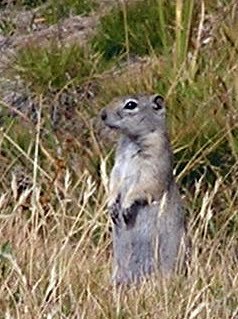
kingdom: Animalia
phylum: Chordata
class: Mammalia
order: Rodentia
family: Sciuridae
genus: Urocitellus
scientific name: Urocitellus beldingi
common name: Belding's ground squirrel
